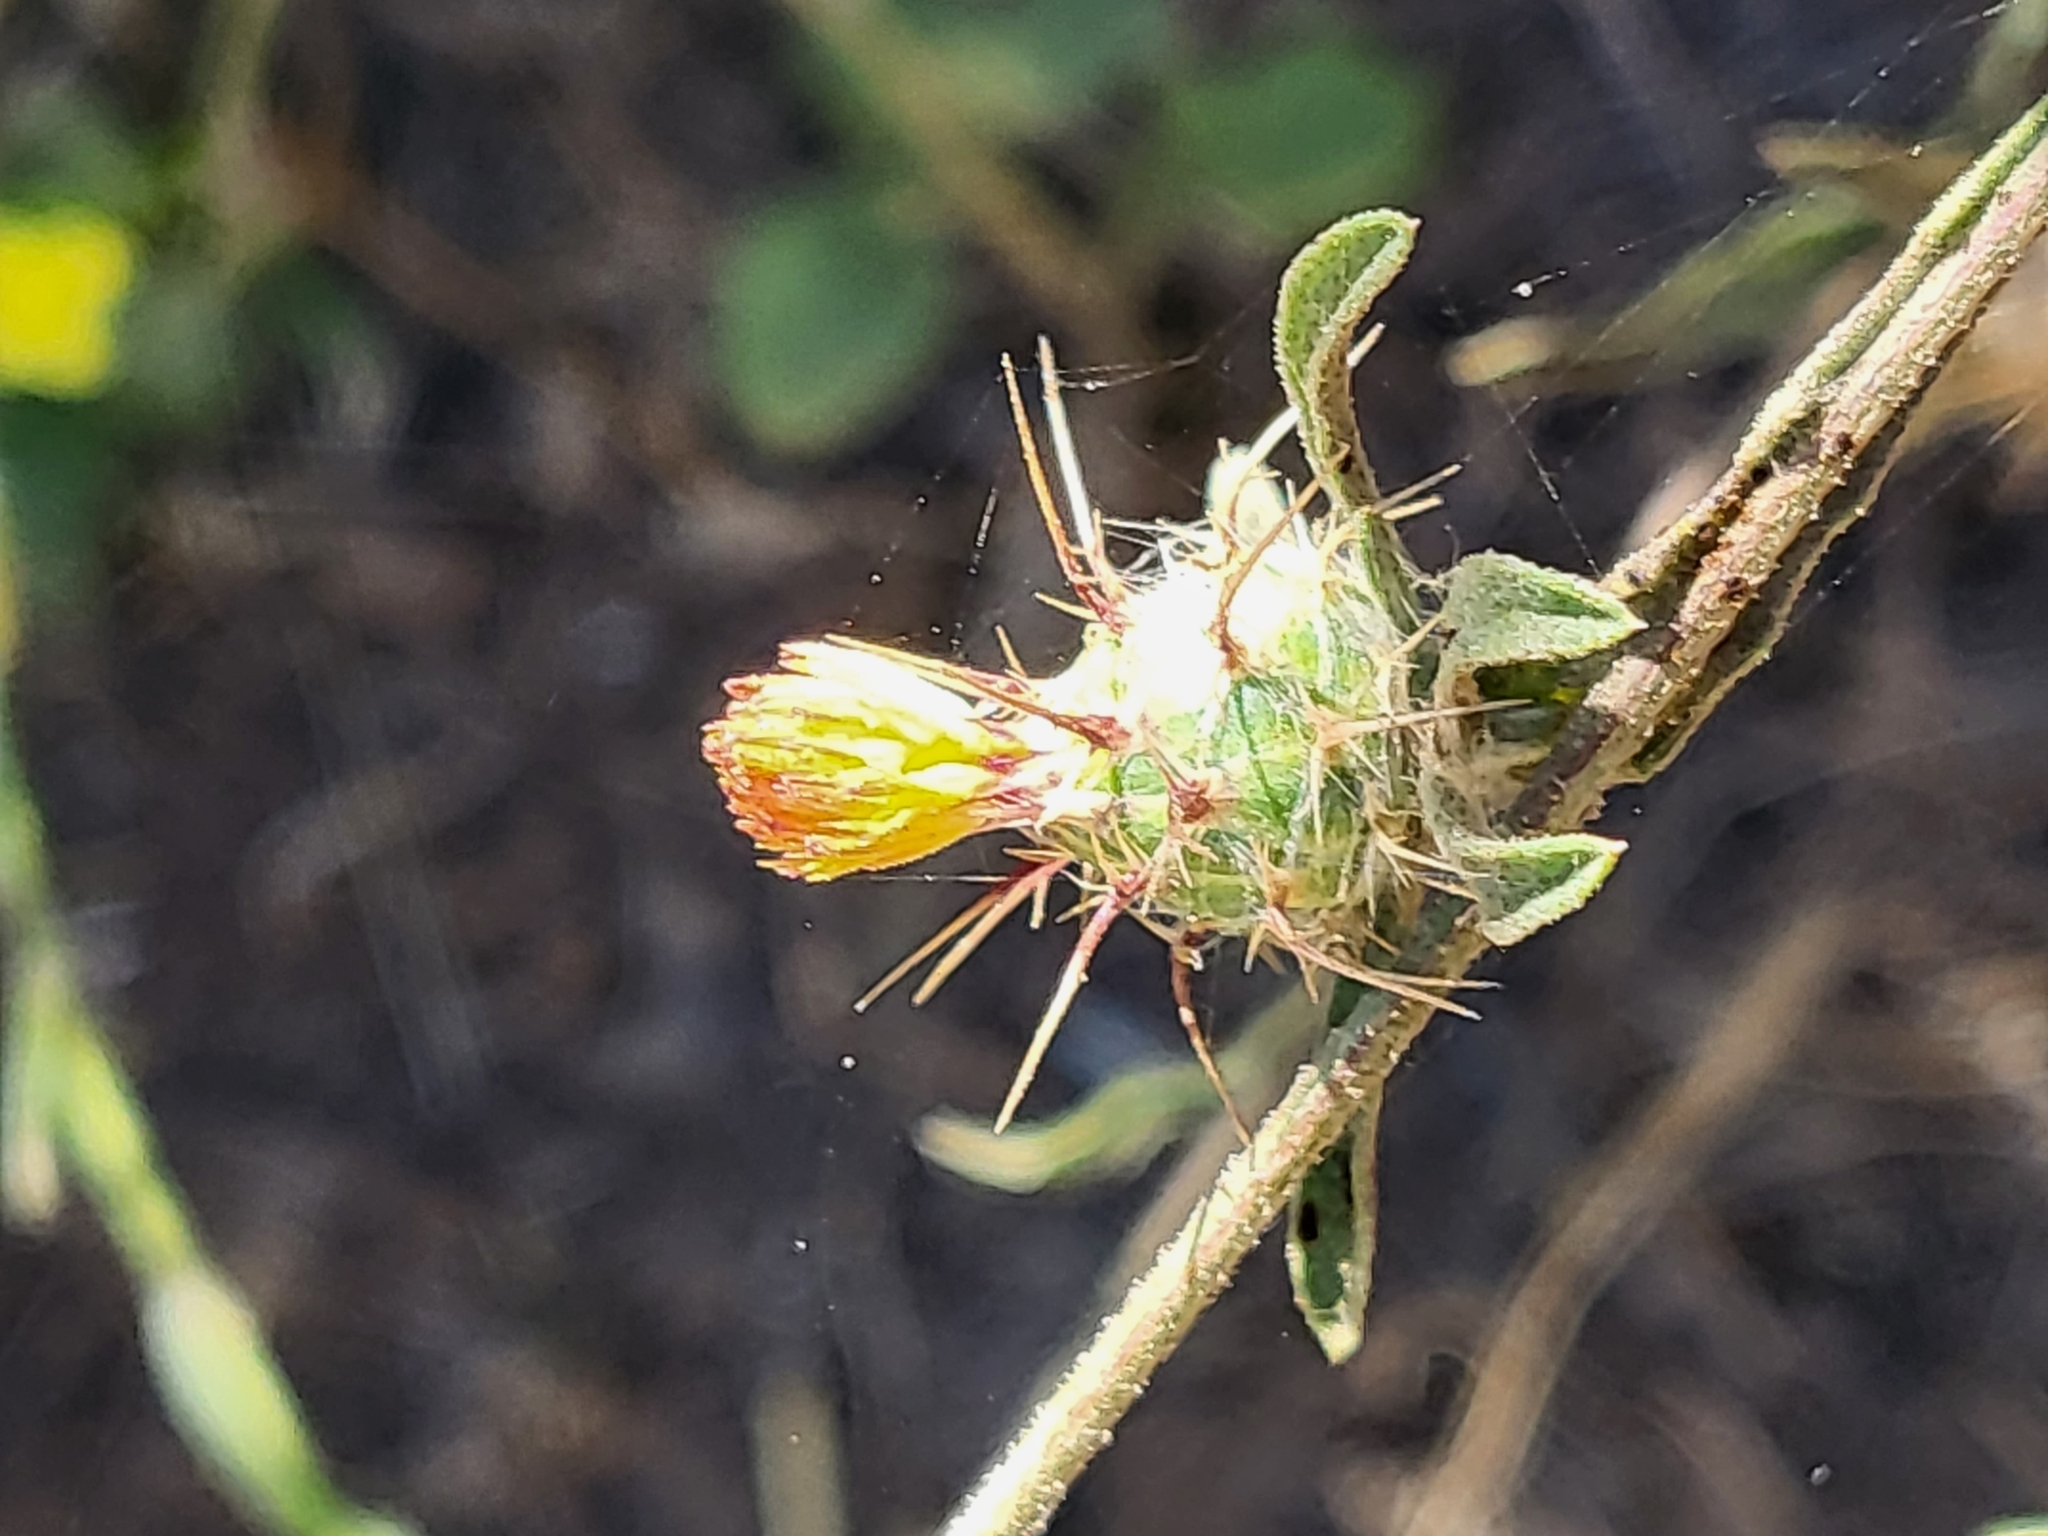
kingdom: Plantae
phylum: Tracheophyta
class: Magnoliopsida
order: Asterales
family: Asteraceae
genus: Centaurea
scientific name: Centaurea melitensis
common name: Maltese star-thistle
